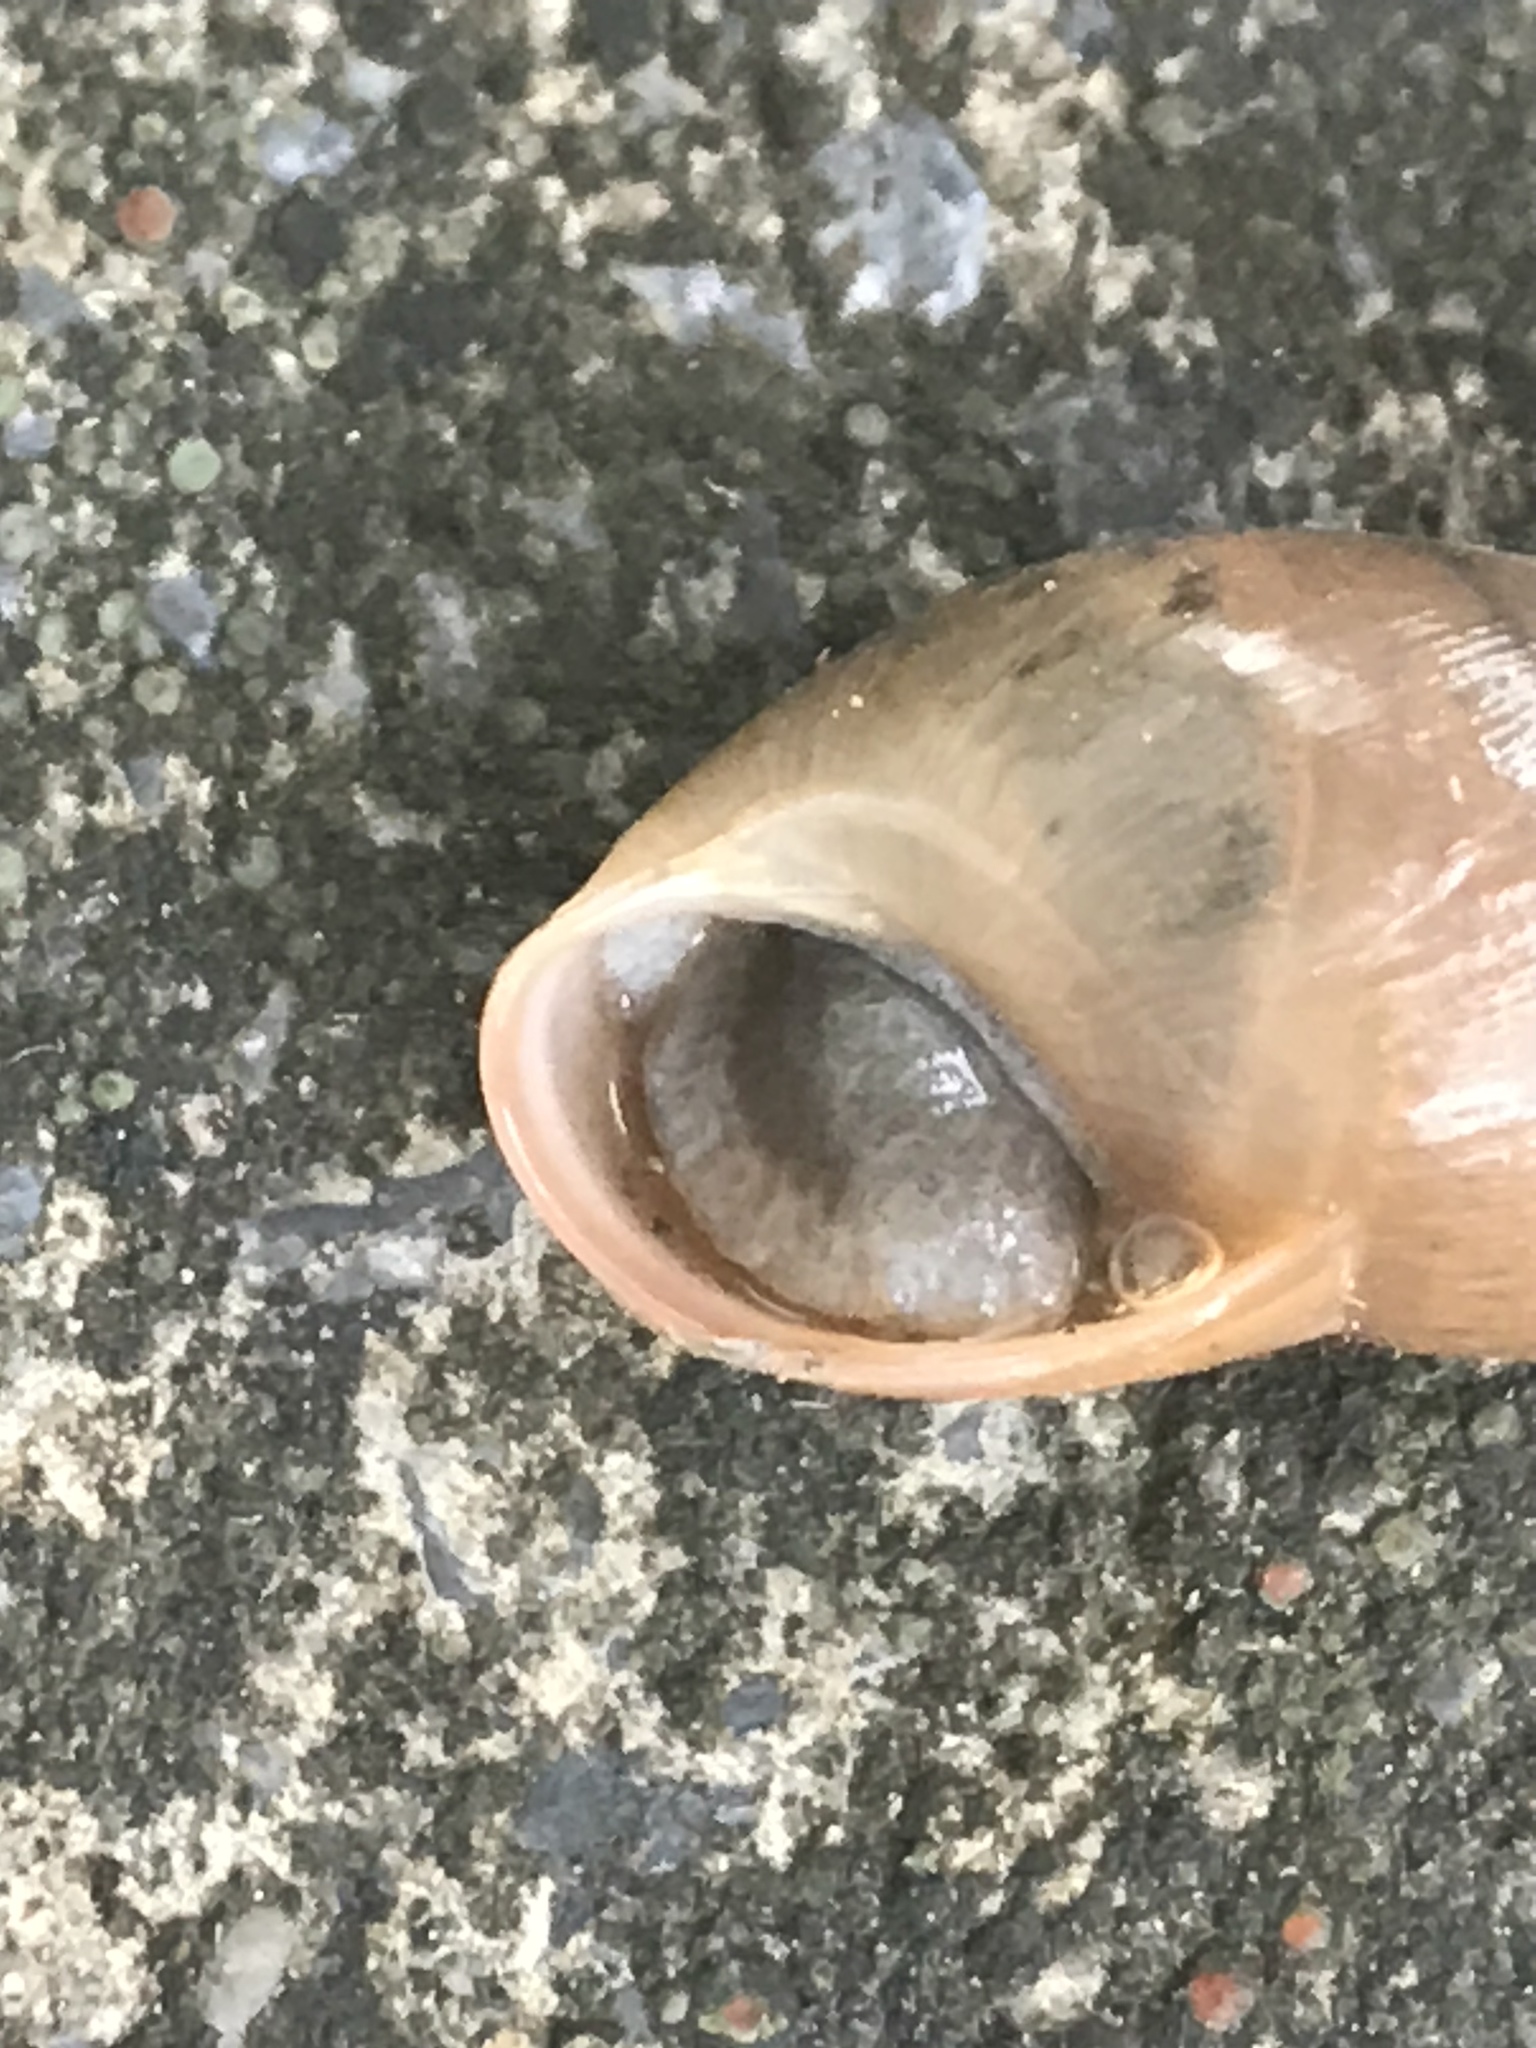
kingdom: Animalia
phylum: Mollusca
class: Gastropoda
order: Stylommatophora
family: Achatinidae
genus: Rumina
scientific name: Rumina decollata
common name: Decollate snail
